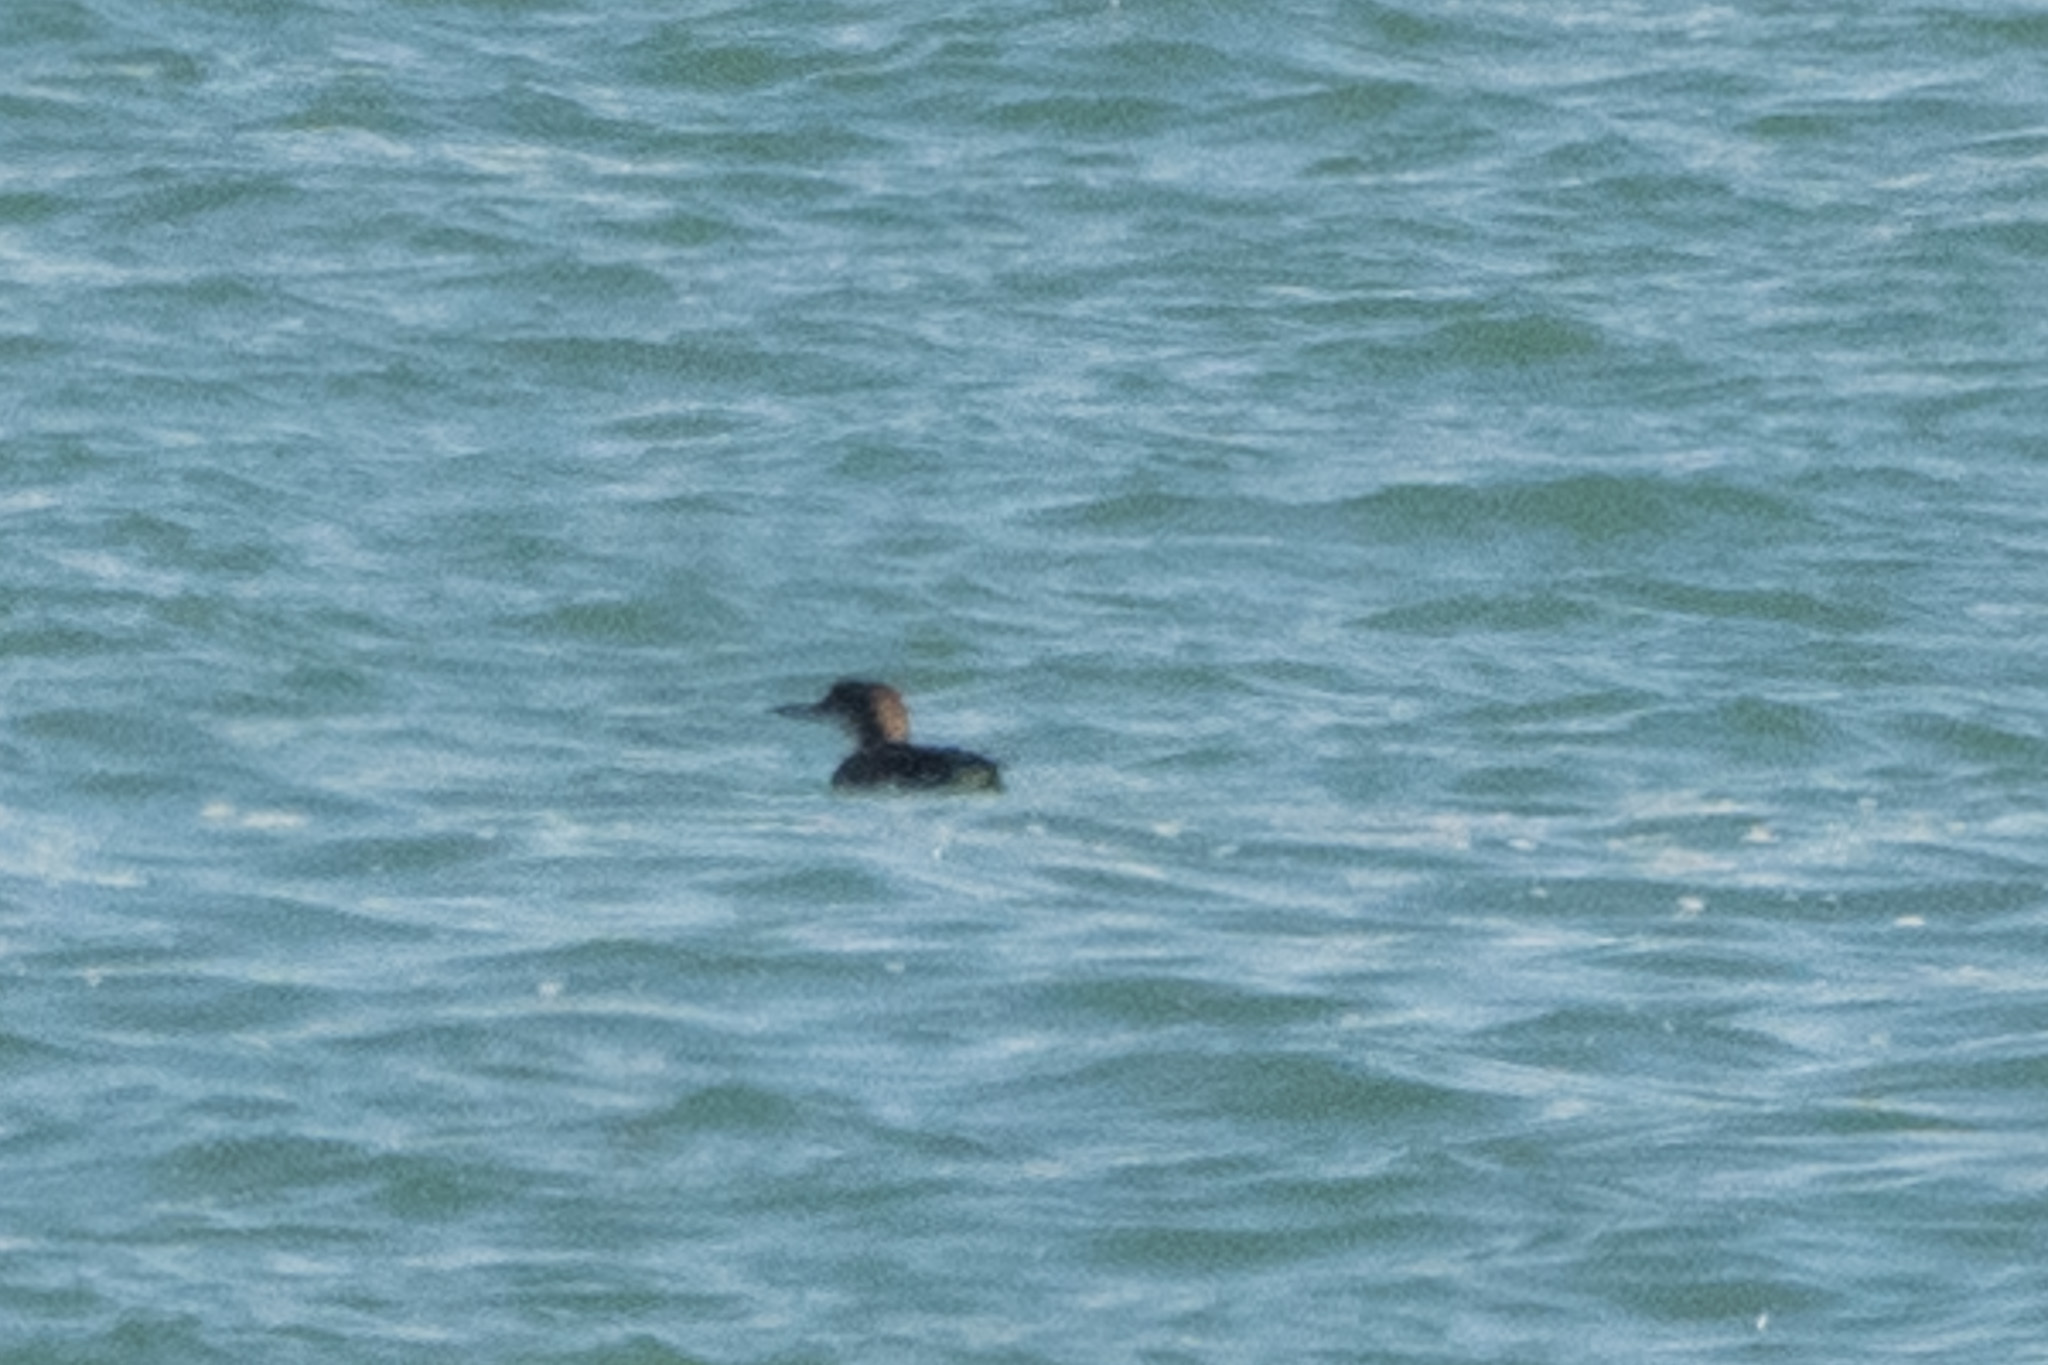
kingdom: Animalia
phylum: Chordata
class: Aves
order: Gaviiformes
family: Gaviidae
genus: Gavia
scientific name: Gavia immer
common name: Common loon
